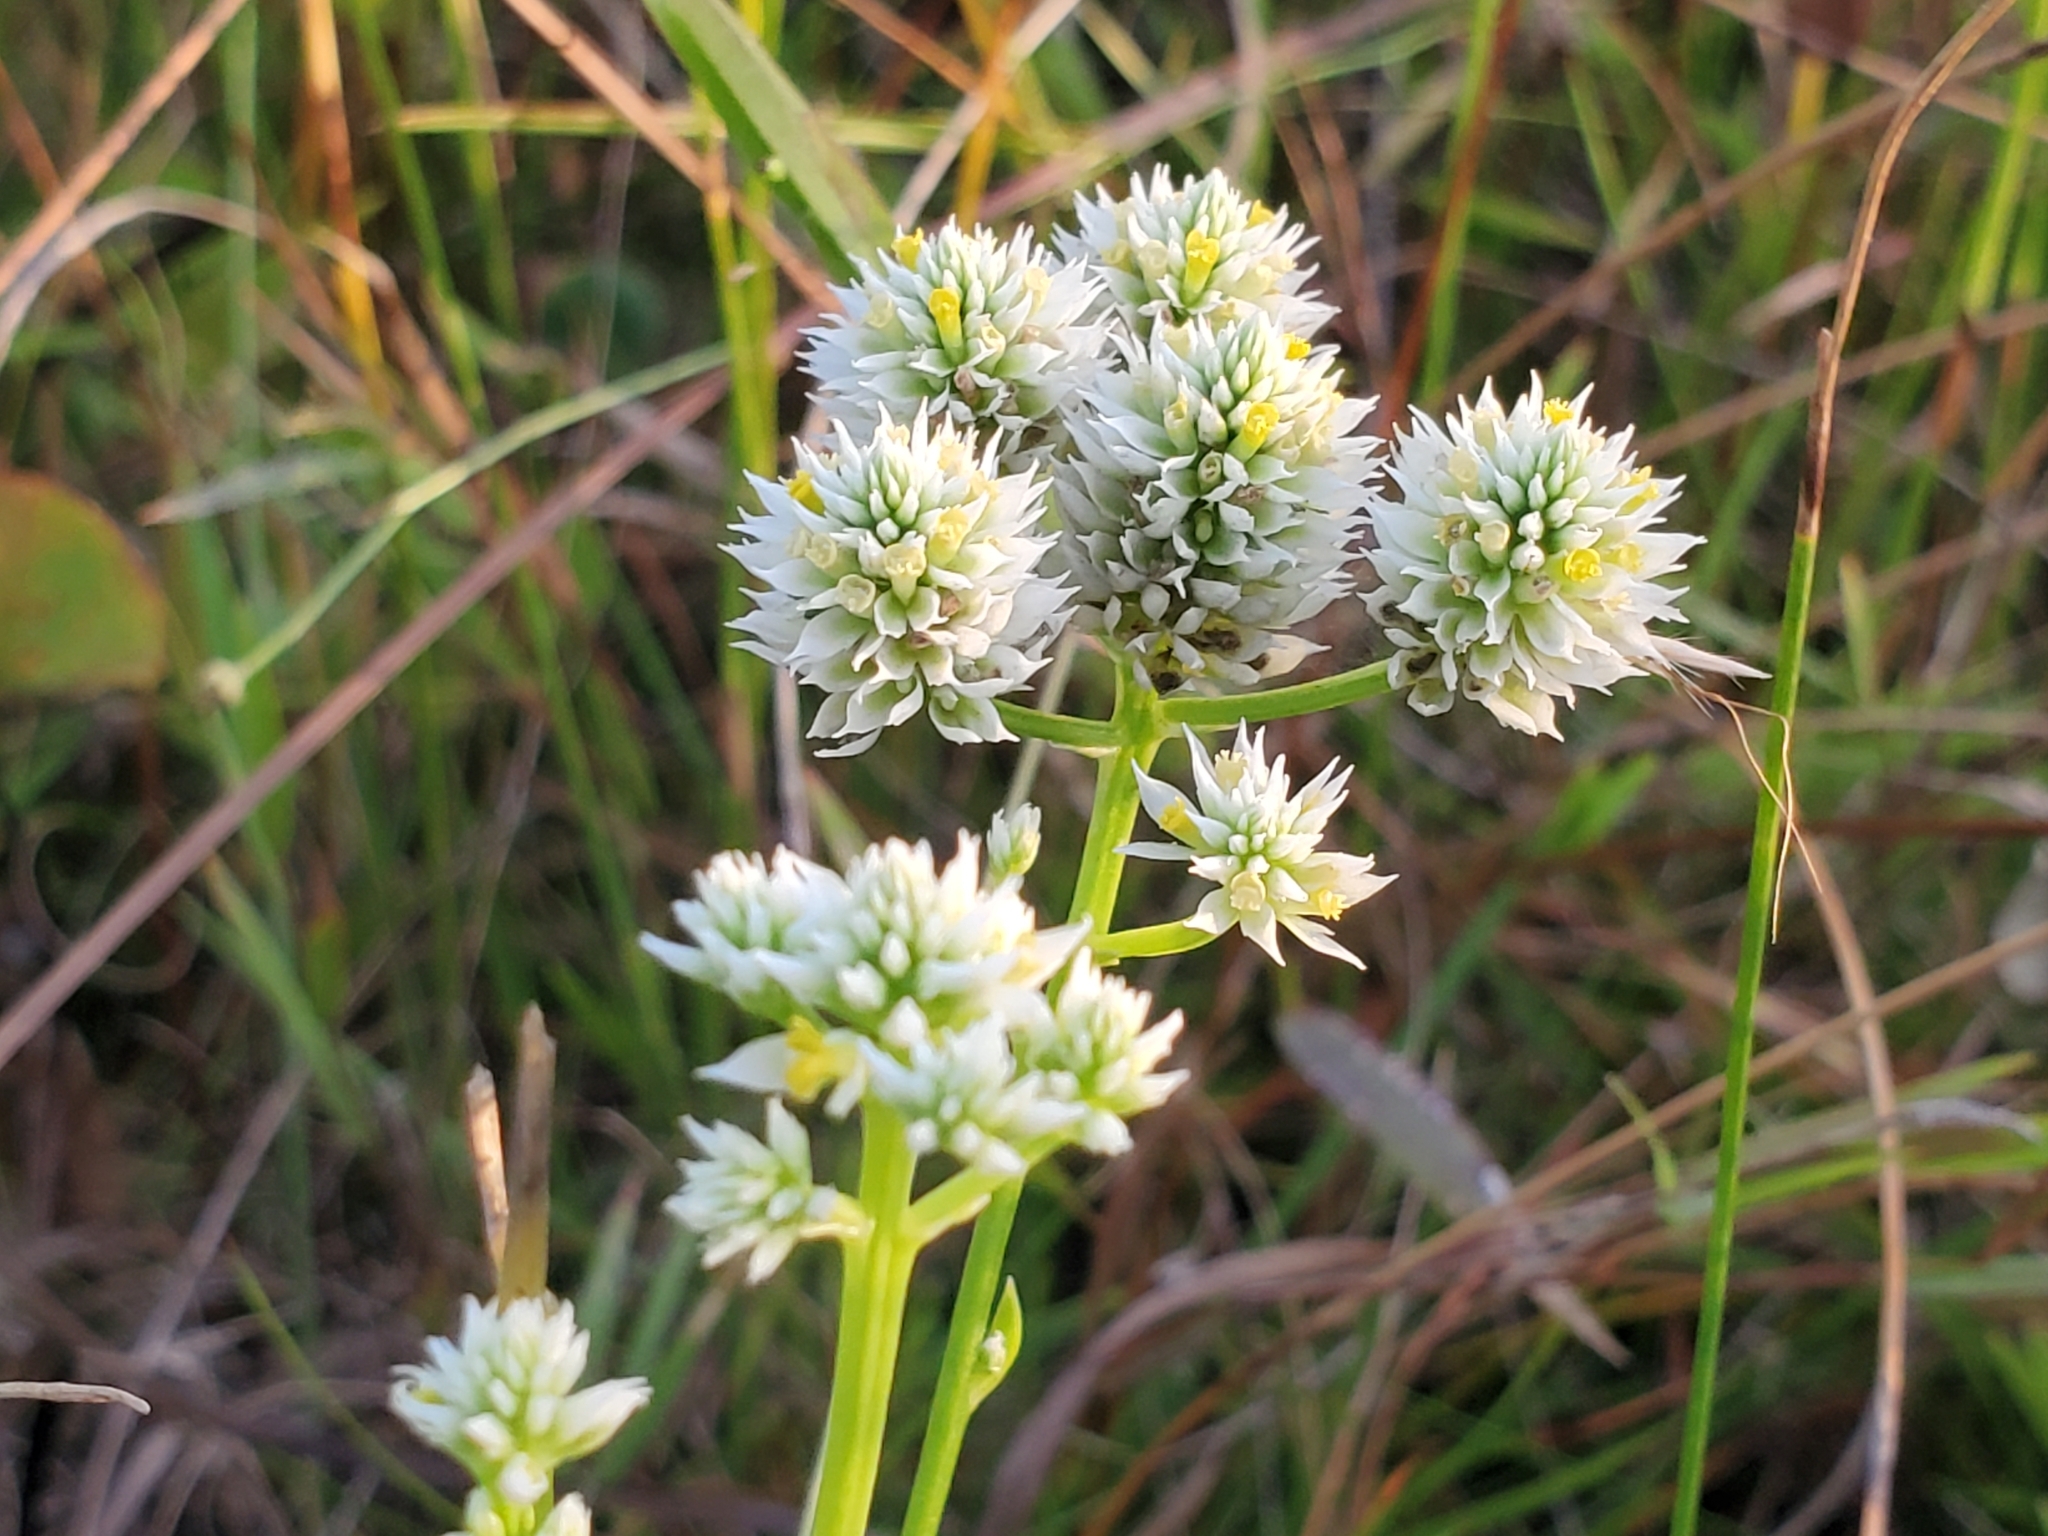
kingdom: Plantae
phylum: Tracheophyta
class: Magnoliopsida
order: Fabales
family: Polygalaceae
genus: Polygala
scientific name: Polygala baldwinii
